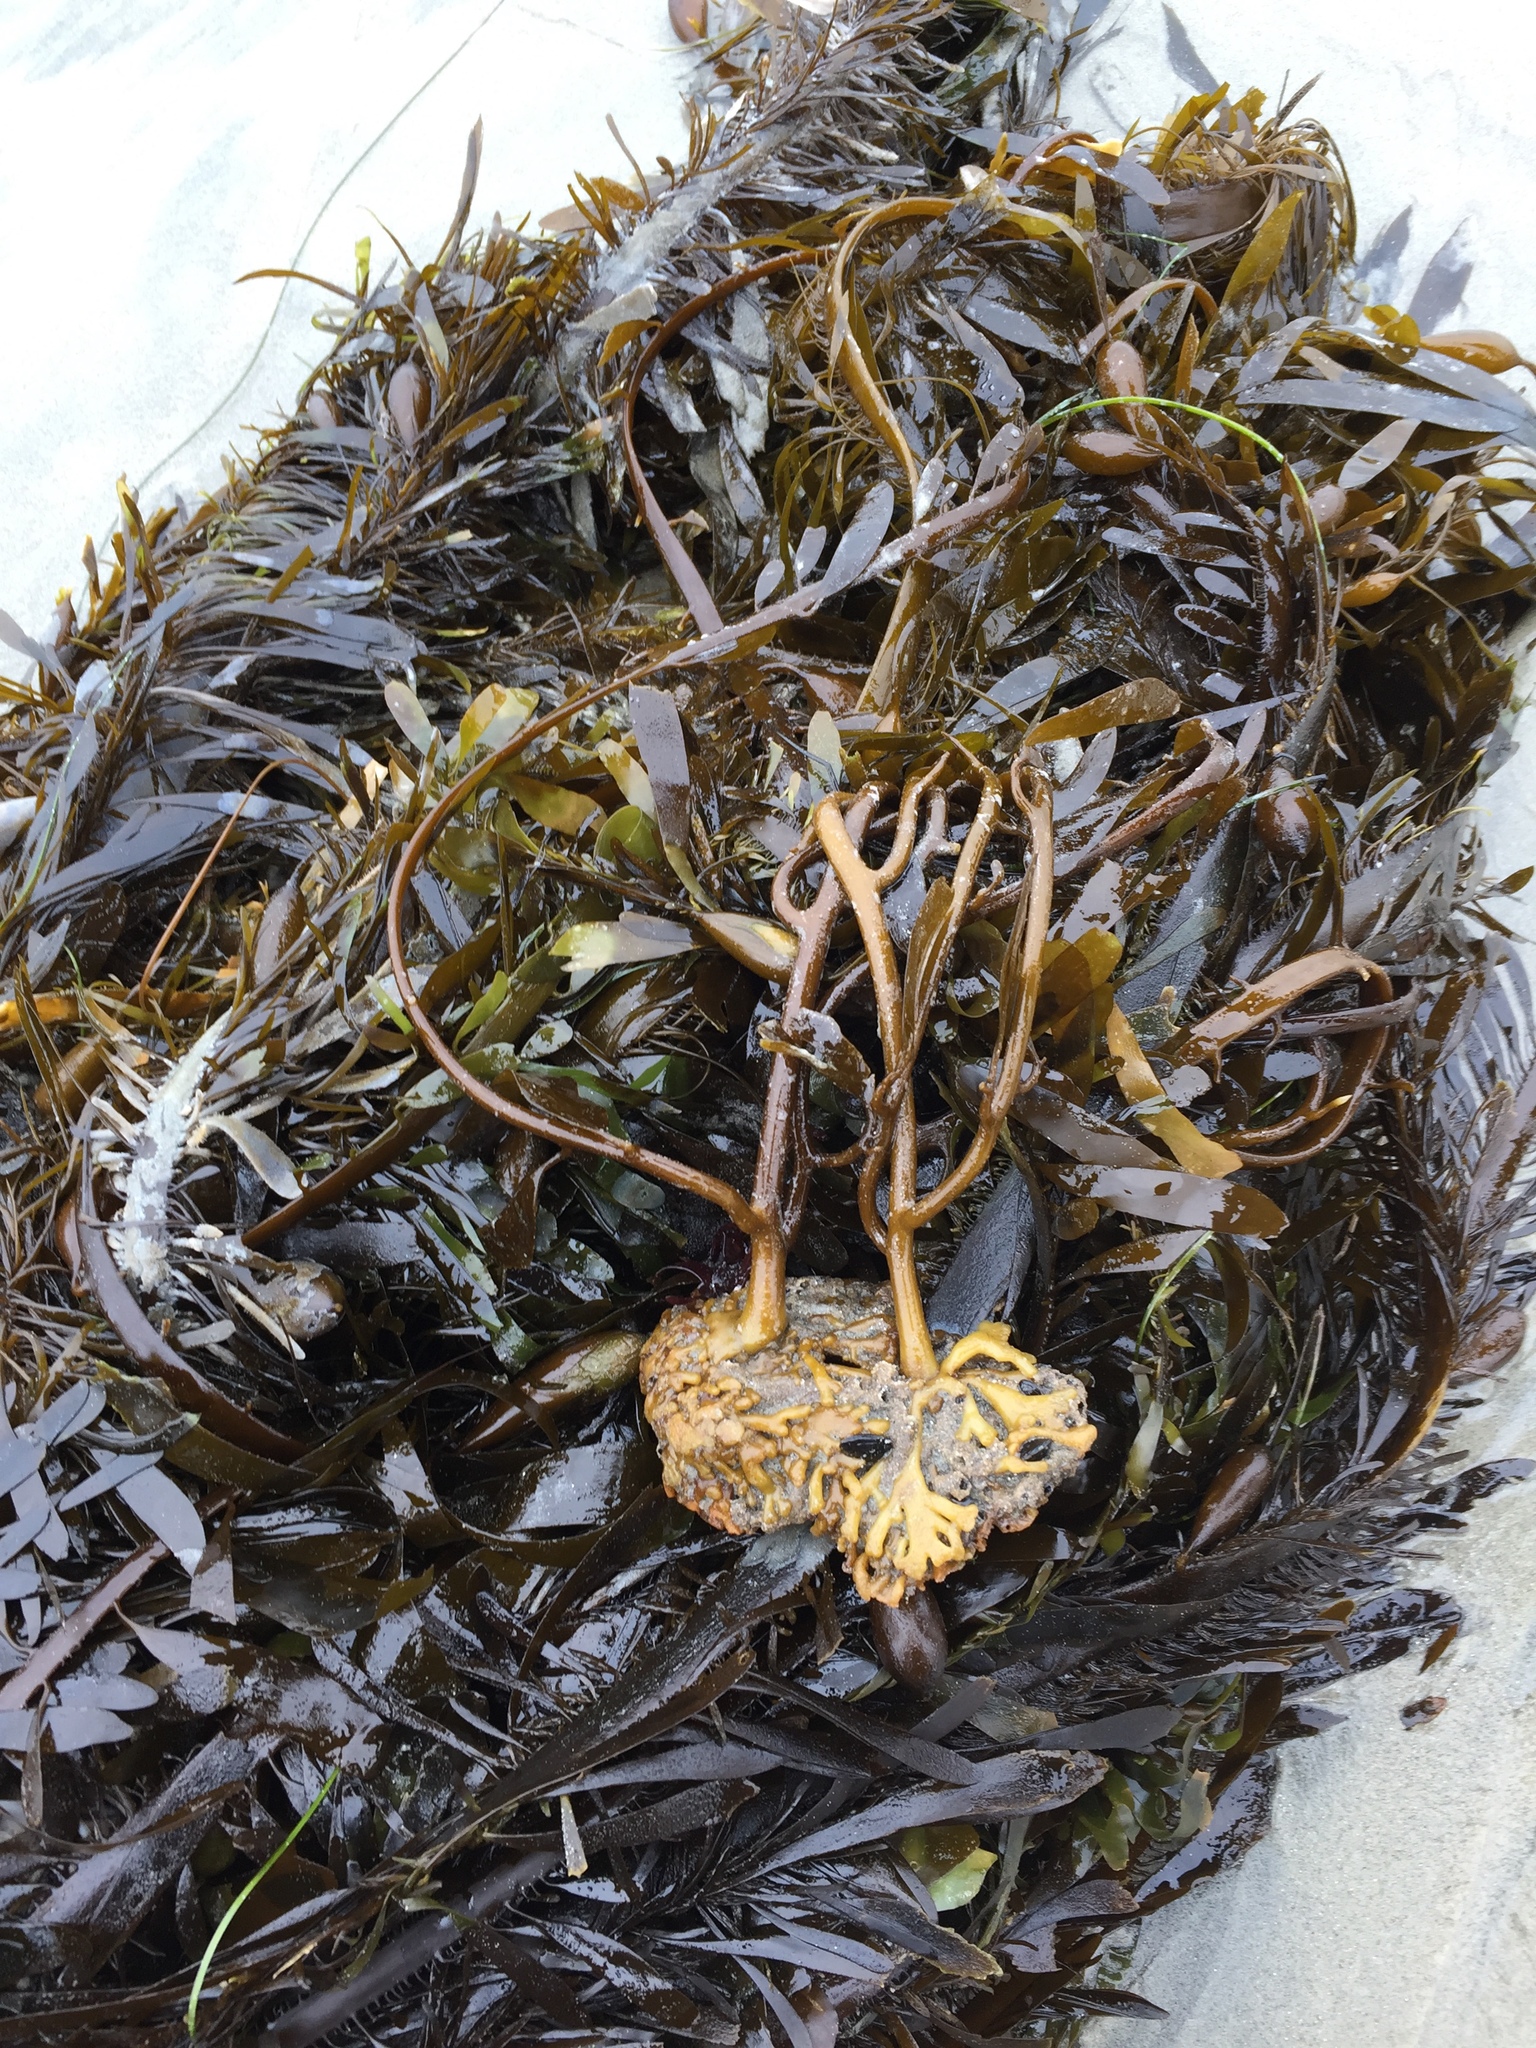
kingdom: Chromista
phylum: Ochrophyta
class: Phaeophyceae
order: Laminariales
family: Lessoniaceae
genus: Egregia
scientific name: Egregia menziesii
